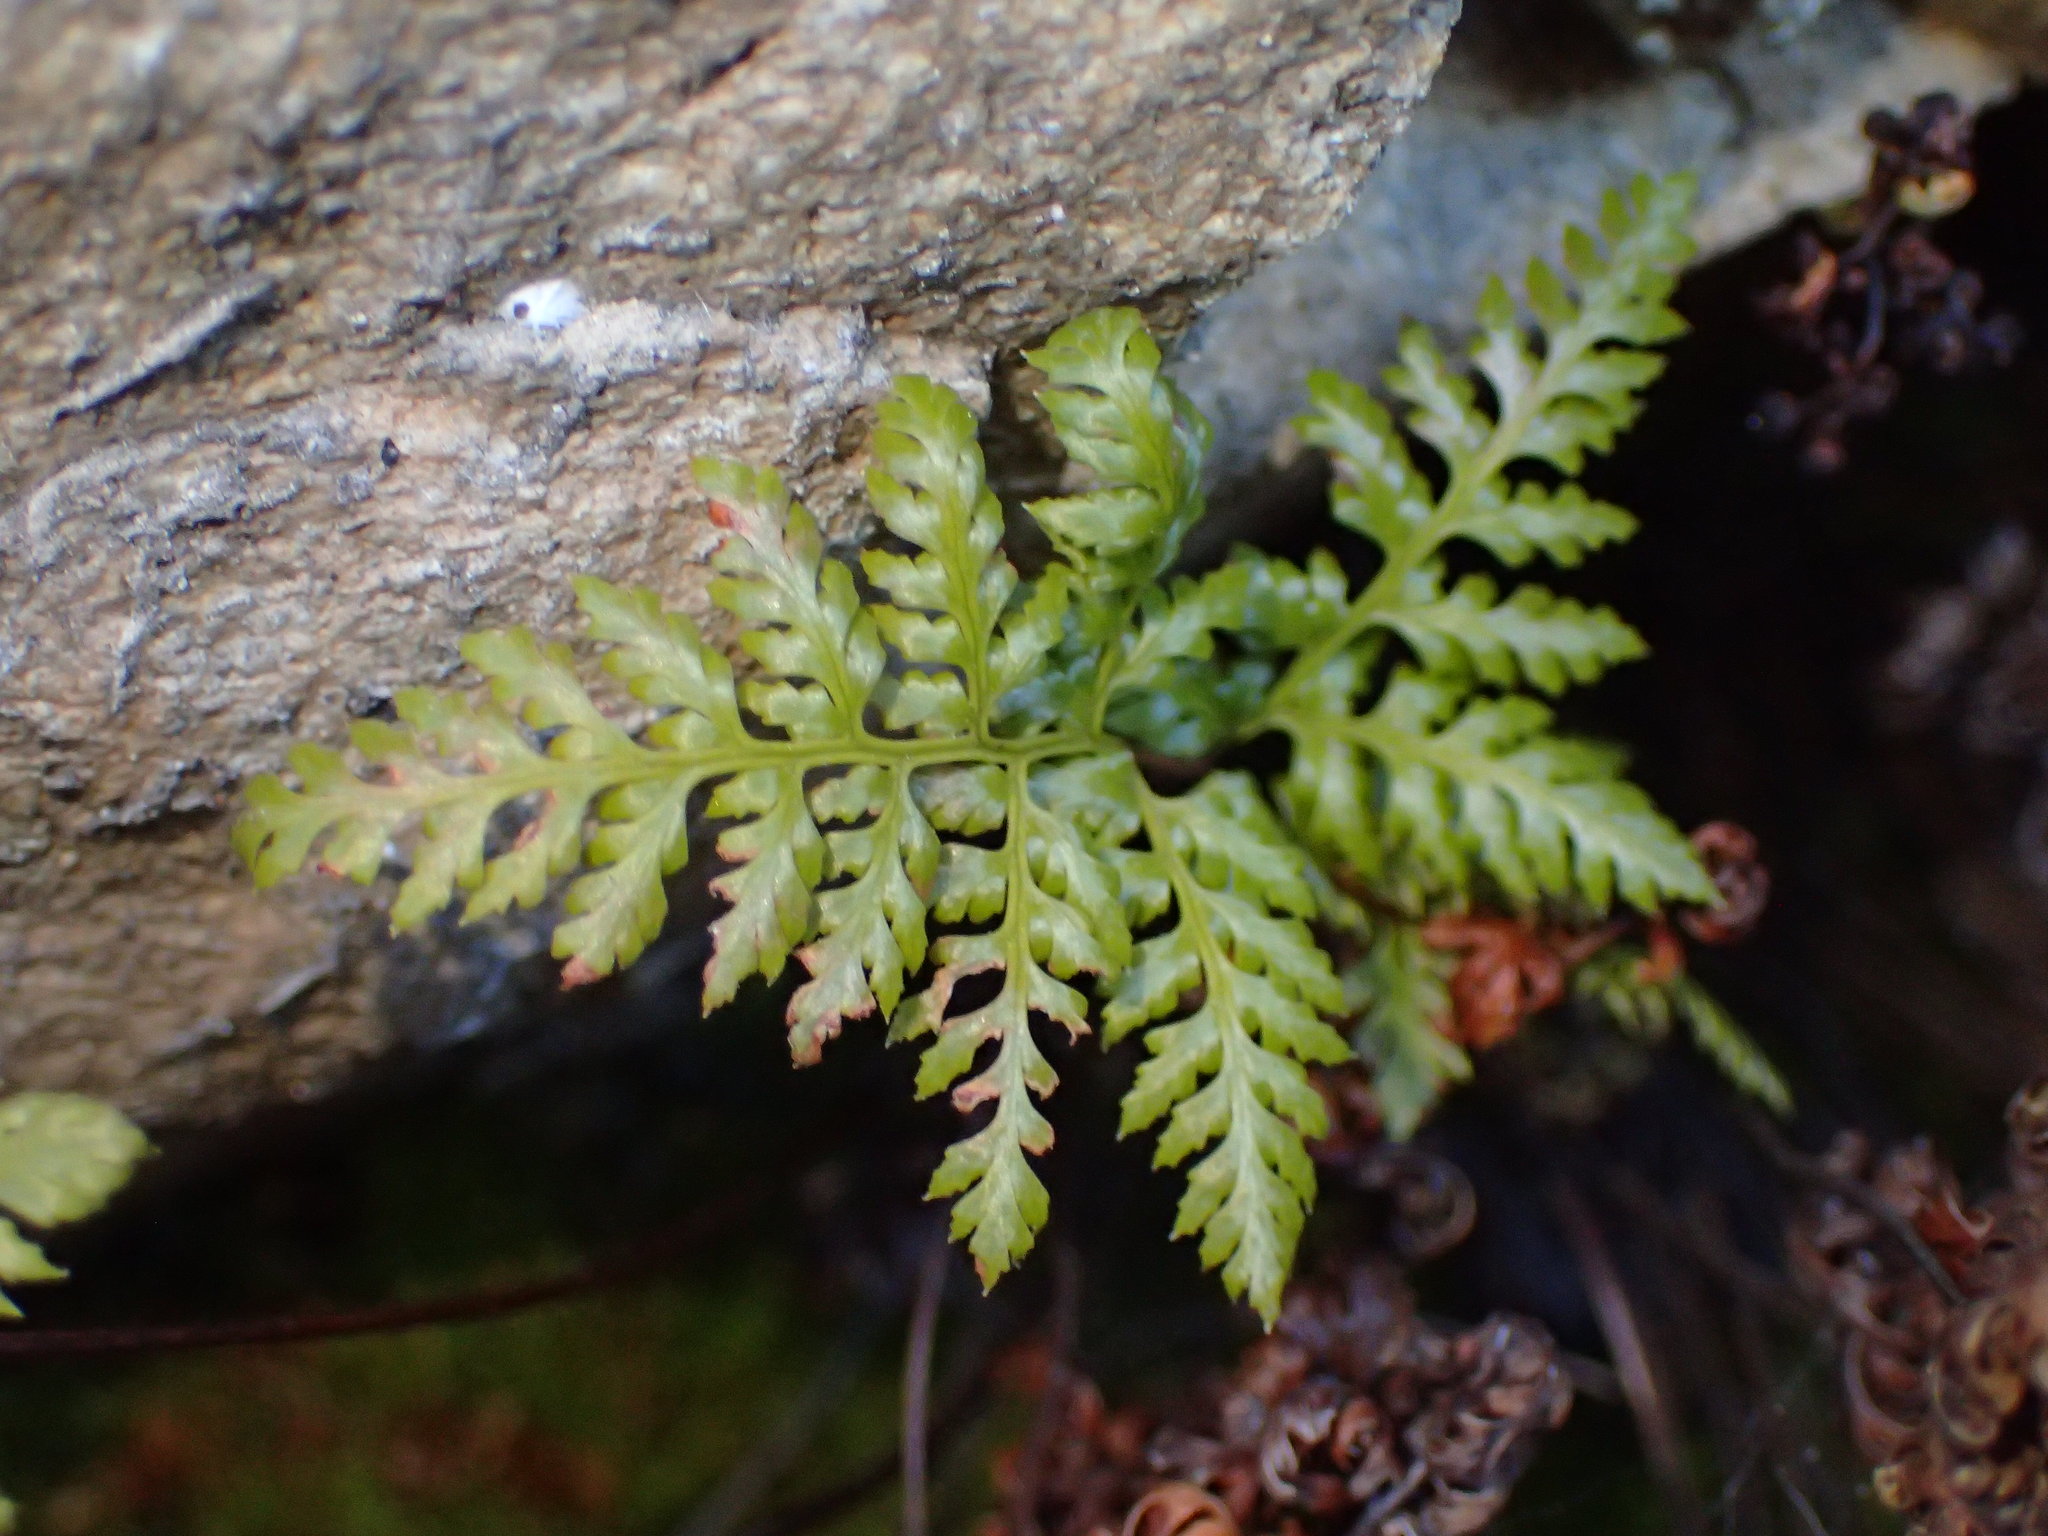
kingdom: Plantae
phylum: Tracheophyta
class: Polypodiopsida
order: Polypodiales
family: Pteridaceae
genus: Aspidotis
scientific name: Aspidotis californica
